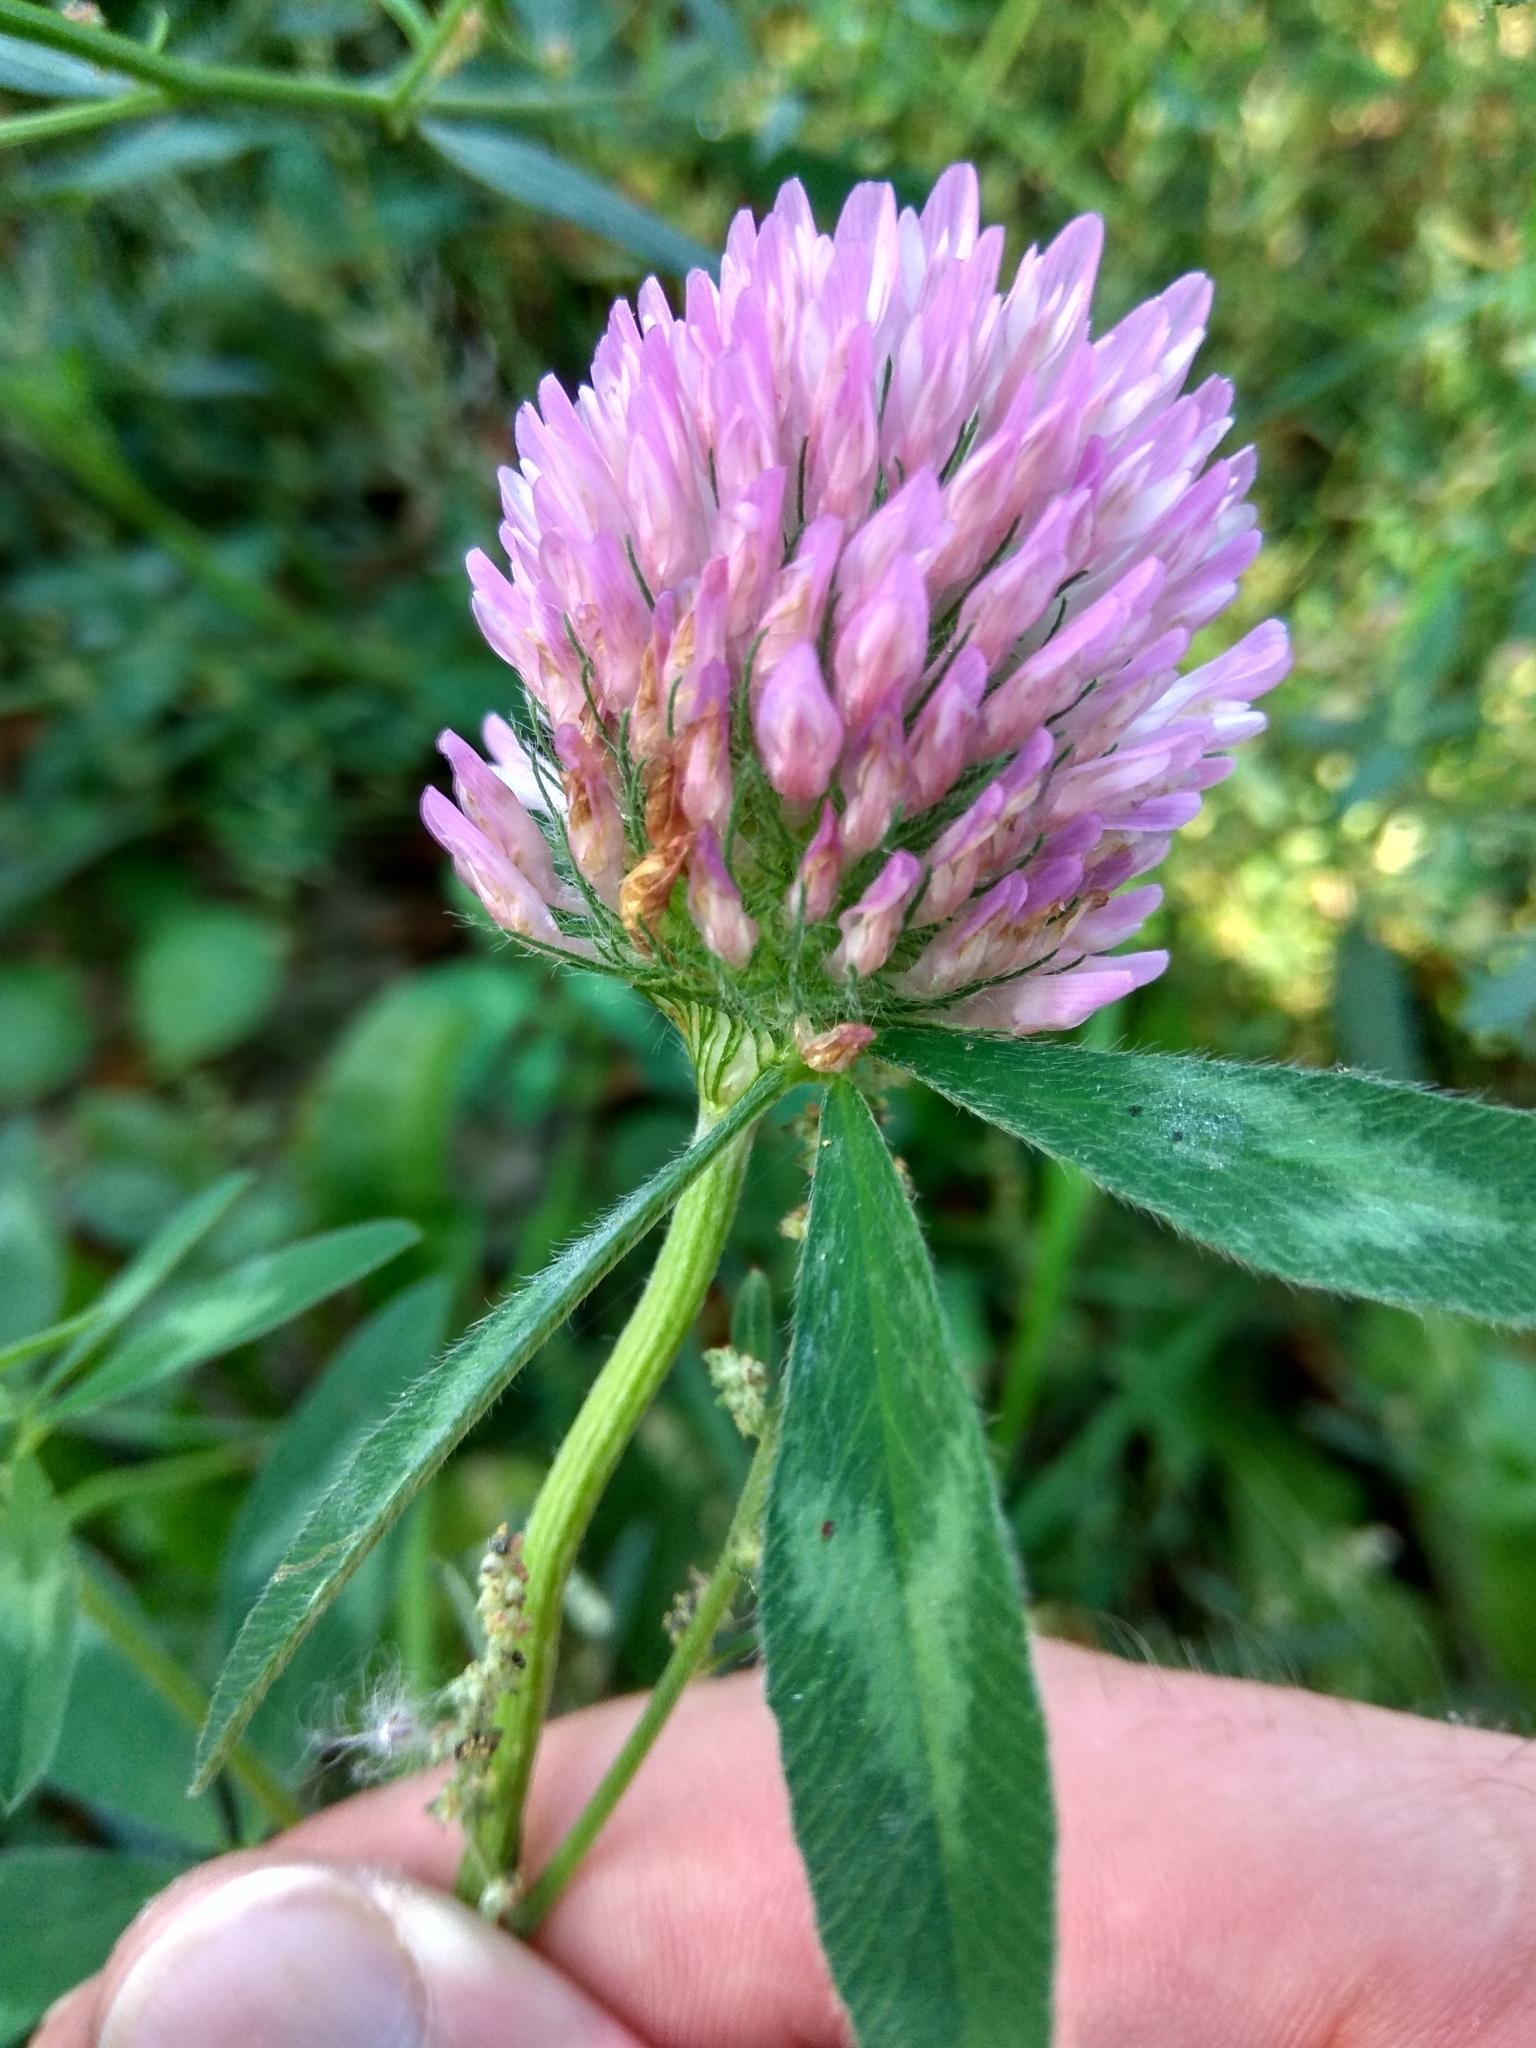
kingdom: Plantae
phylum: Tracheophyta
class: Magnoliopsida
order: Fabales
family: Fabaceae
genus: Trifolium
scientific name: Trifolium pratense
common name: Red clover
